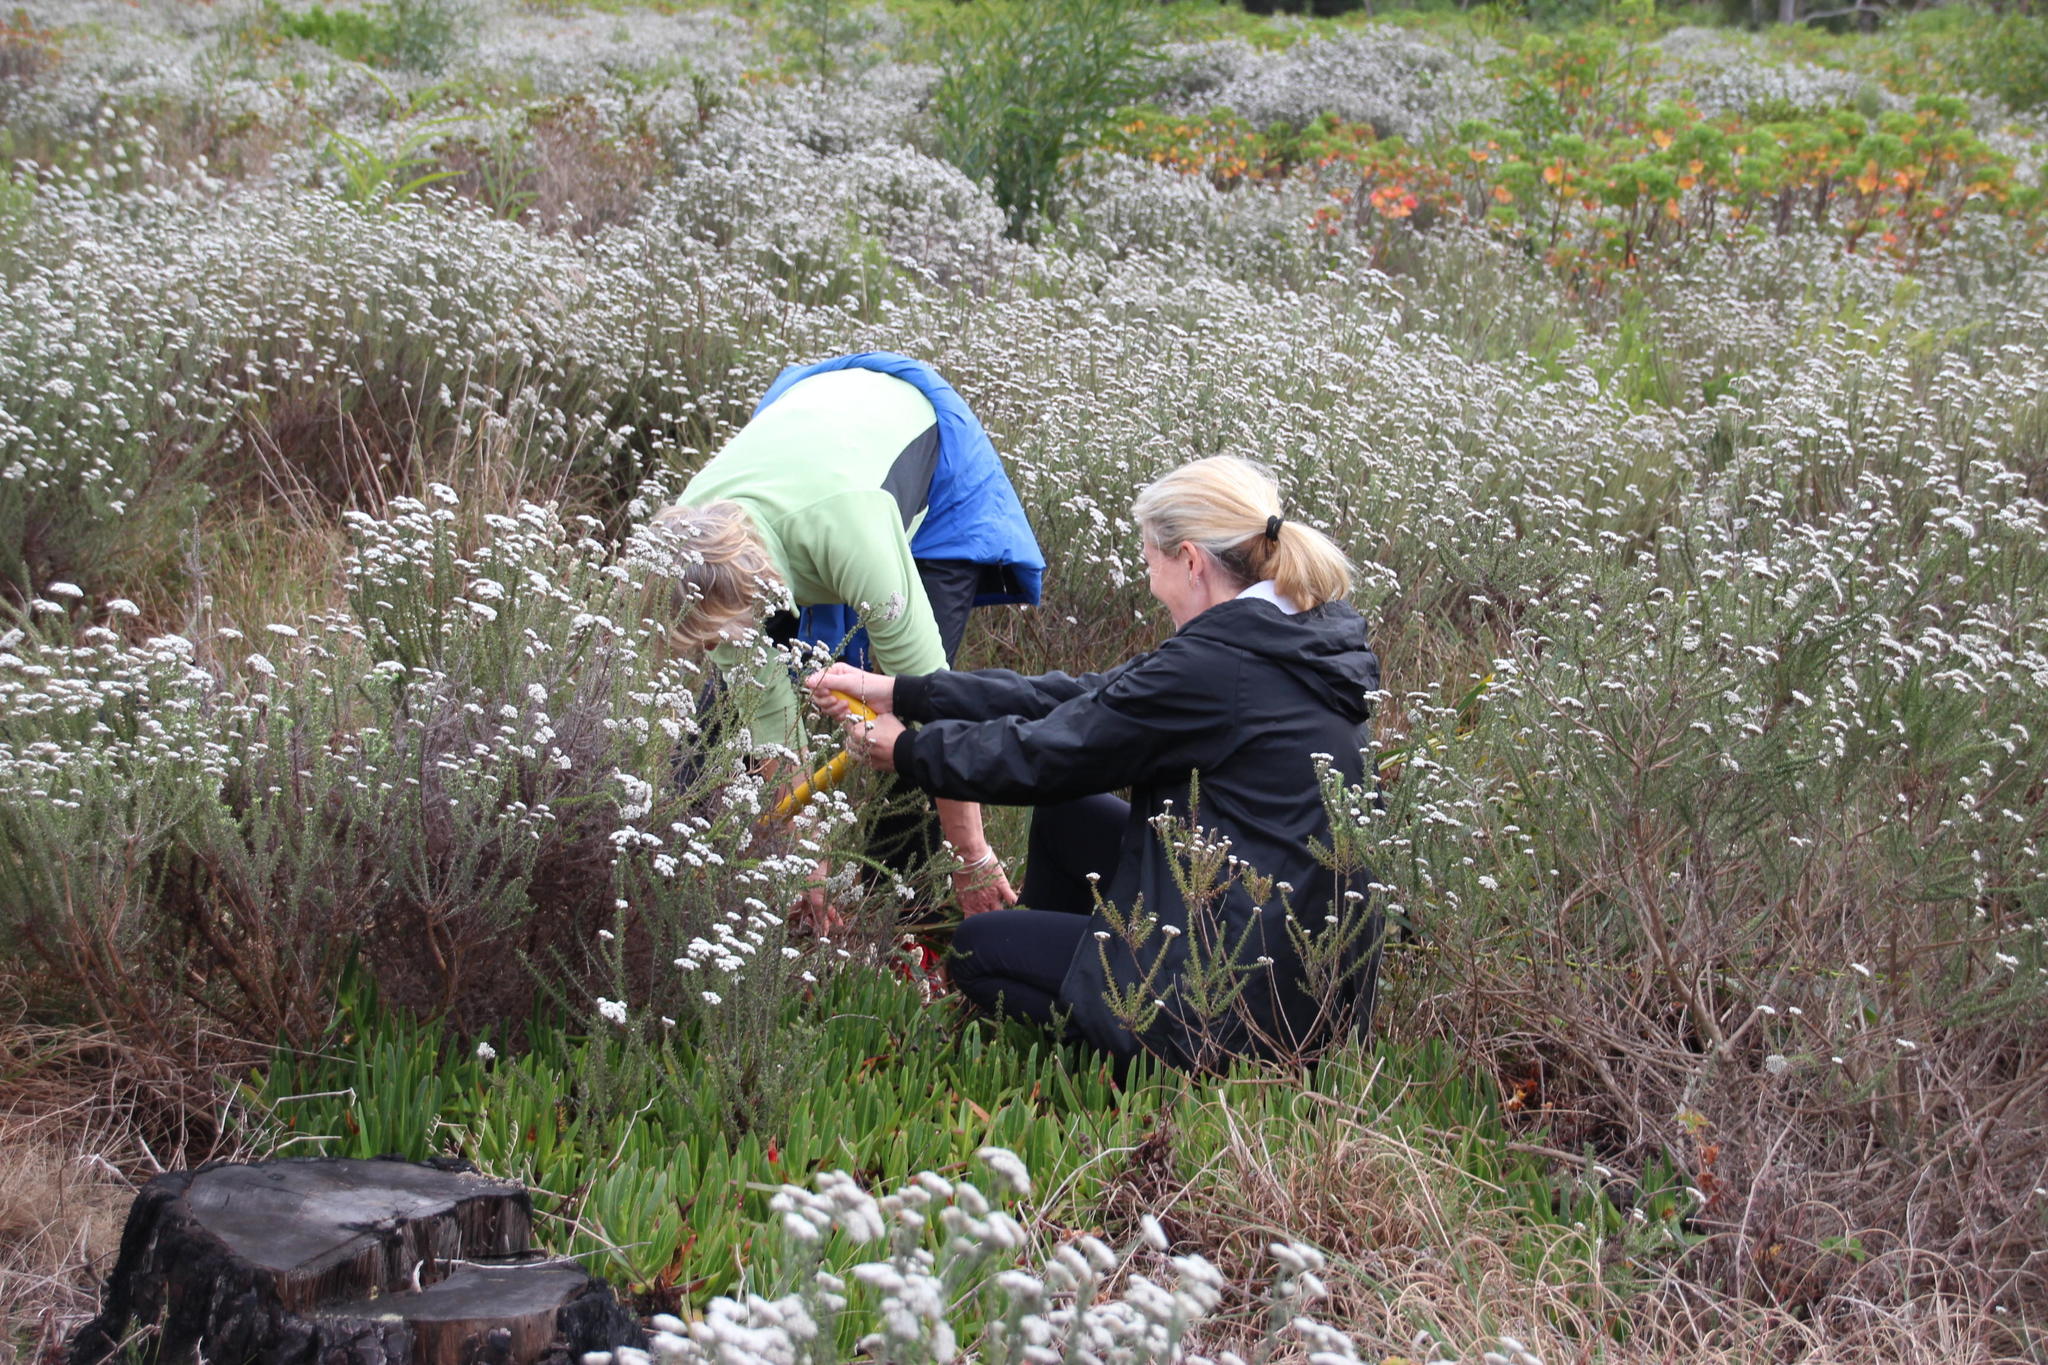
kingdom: Plantae
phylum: Tracheophyta
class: Magnoliopsida
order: Caryophyllales
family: Aizoaceae
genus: Carpobrotus
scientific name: Carpobrotus edulis
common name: Hottentot-fig
